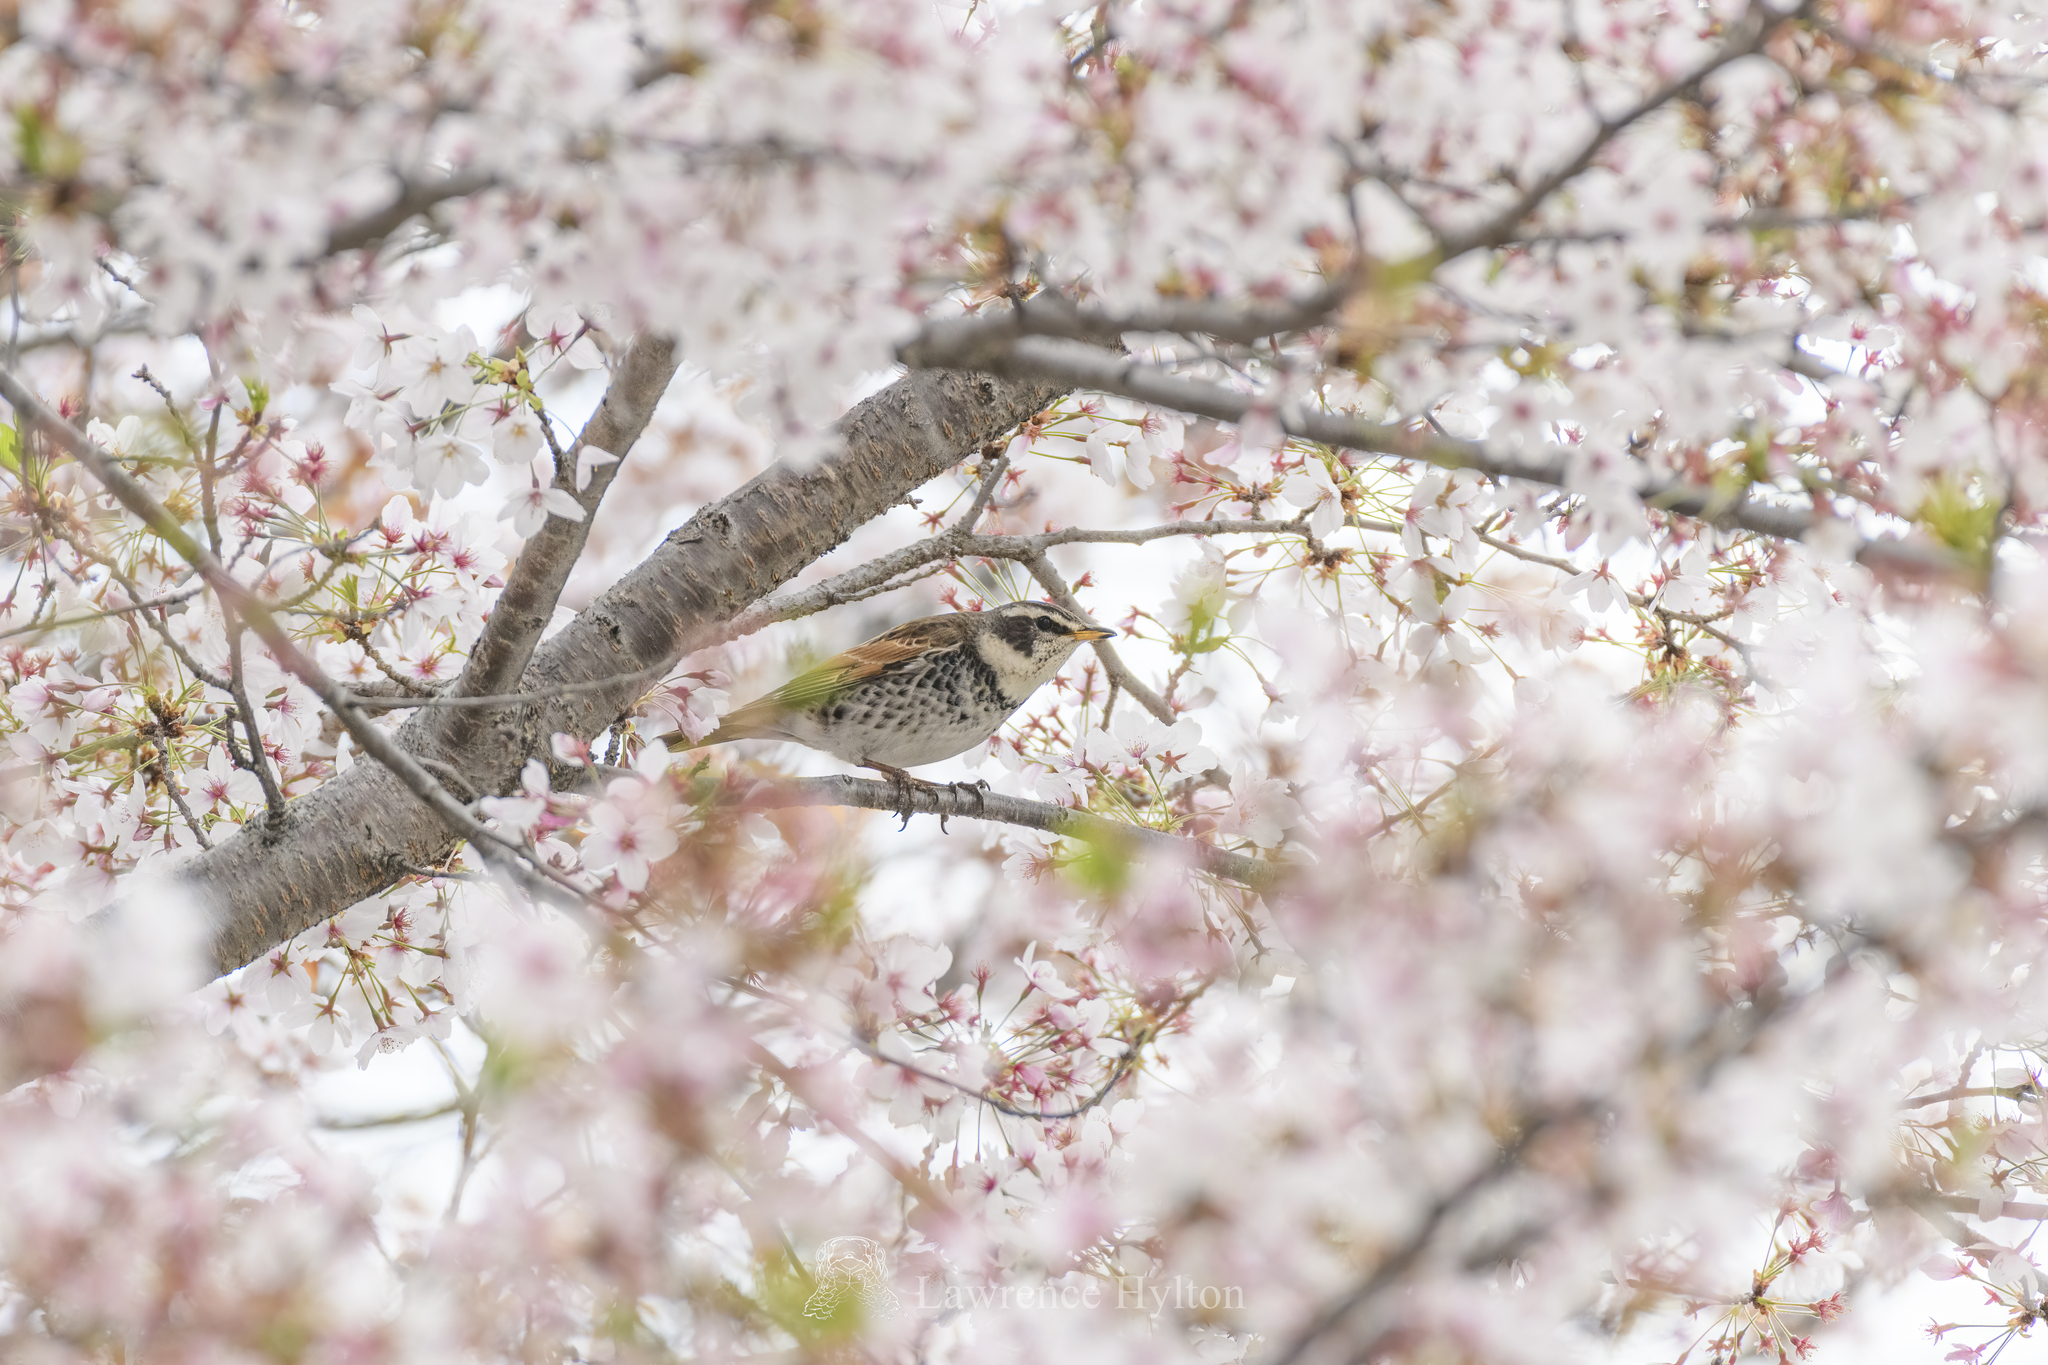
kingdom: Animalia
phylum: Chordata
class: Aves
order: Passeriformes
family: Turdidae
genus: Turdus
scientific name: Turdus eunomus
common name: Dusky thrush
